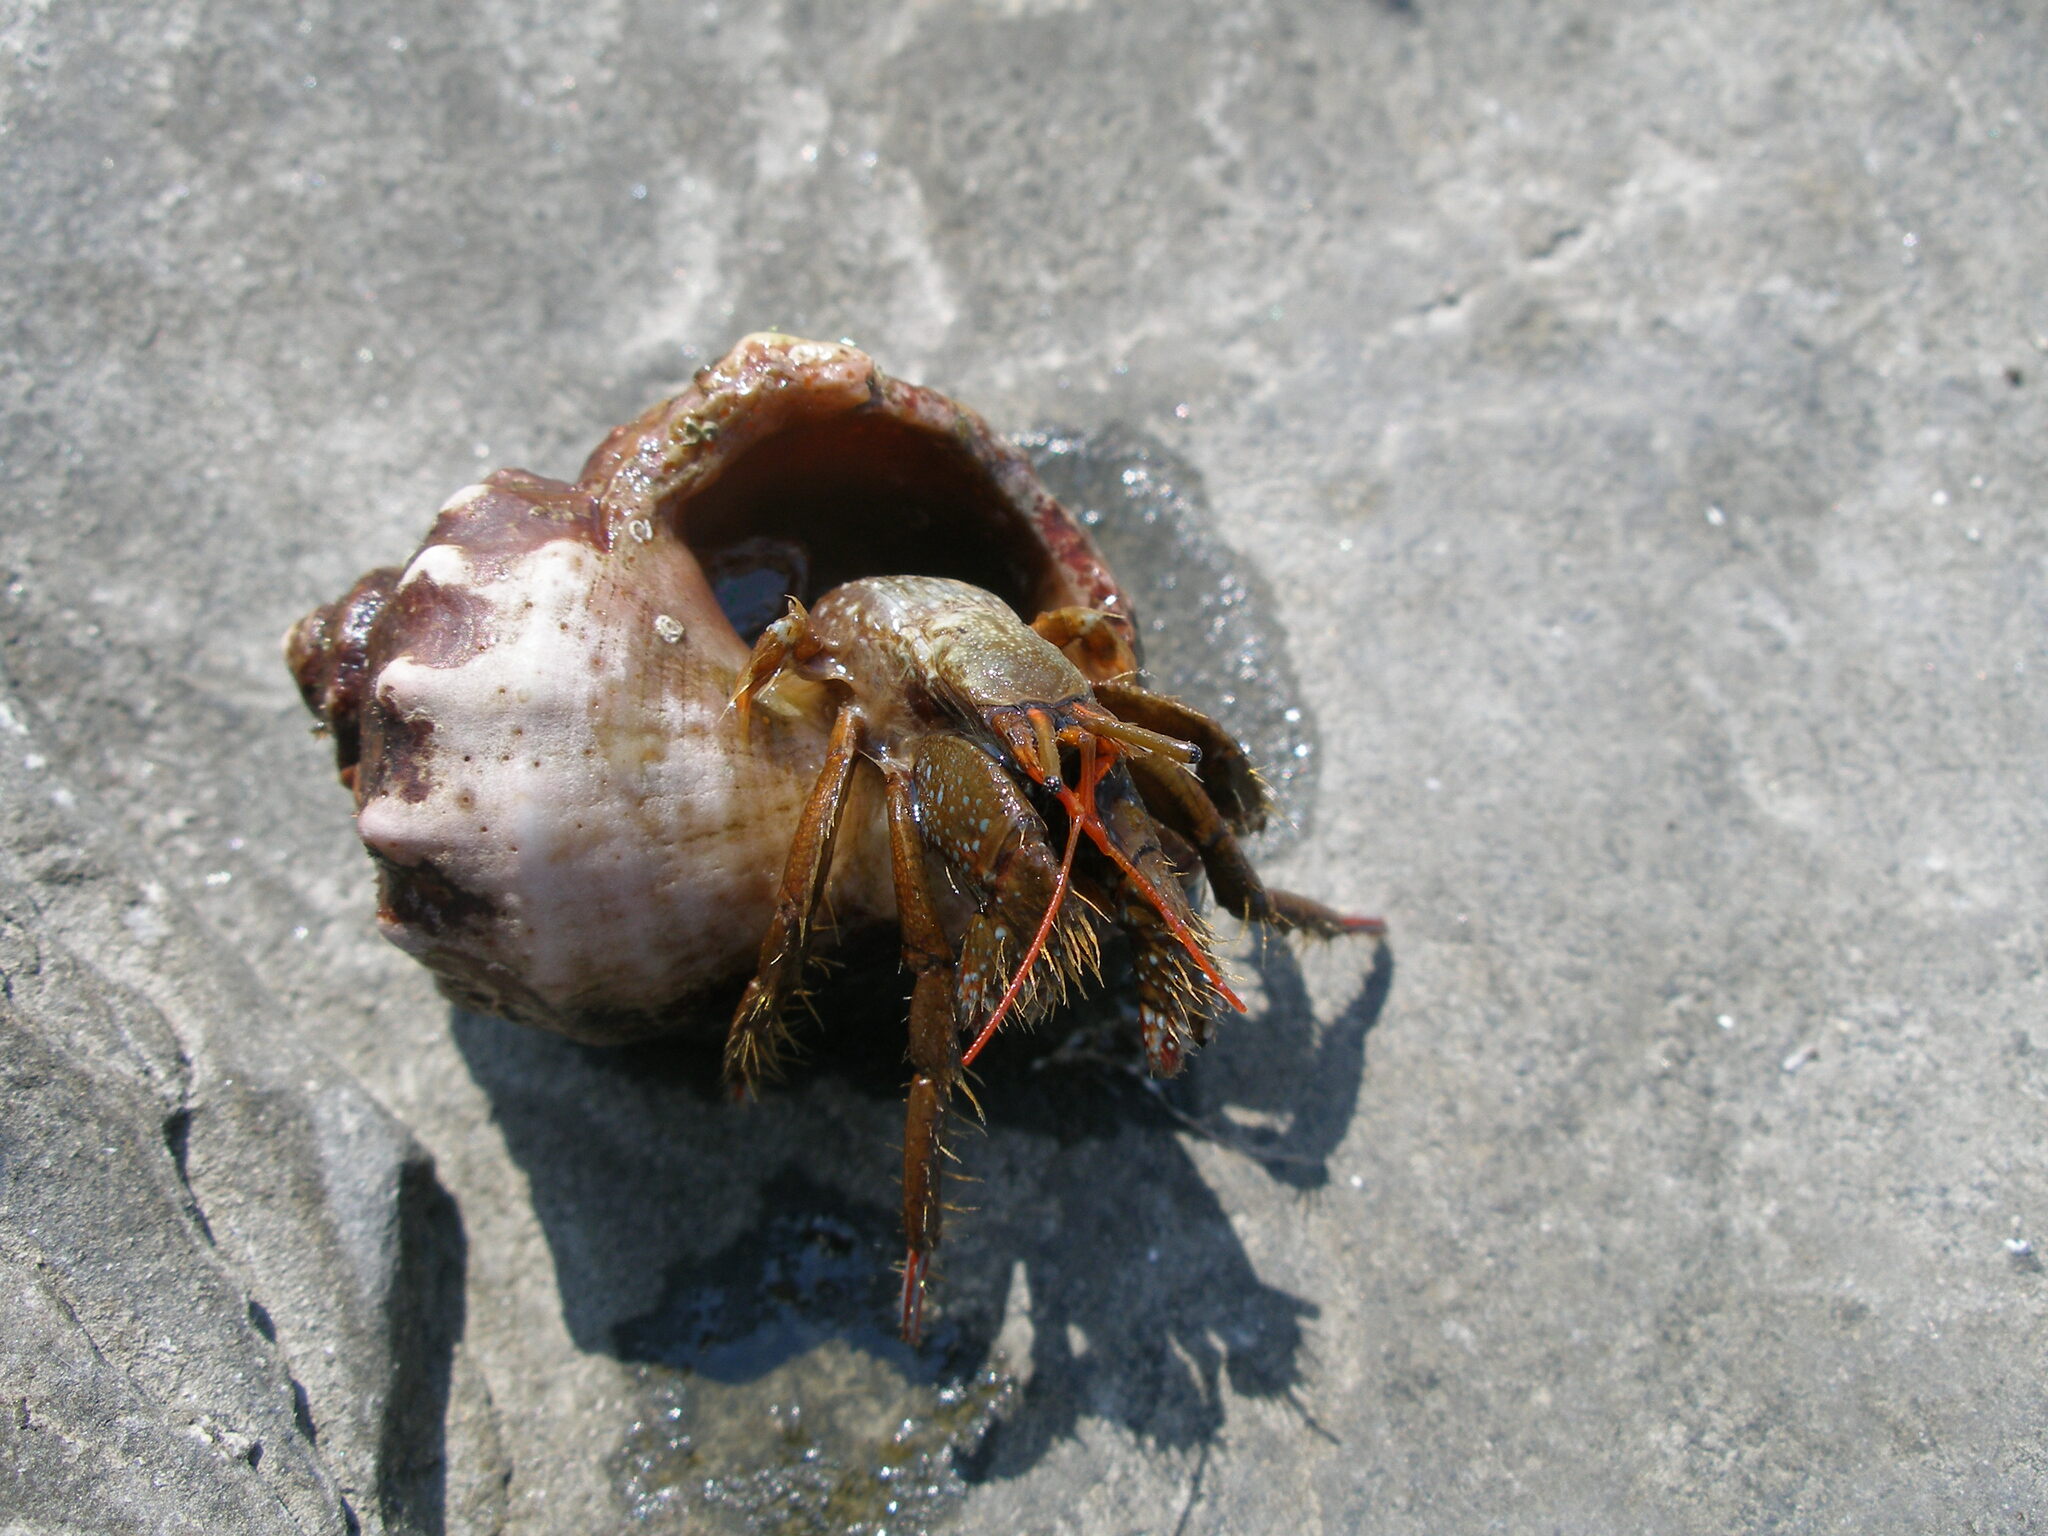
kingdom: Animalia
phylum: Arthropoda
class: Malacostraca
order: Decapoda
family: Diogenidae
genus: Clibanarius
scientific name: Clibanarius erythropus
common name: Hermit crab
